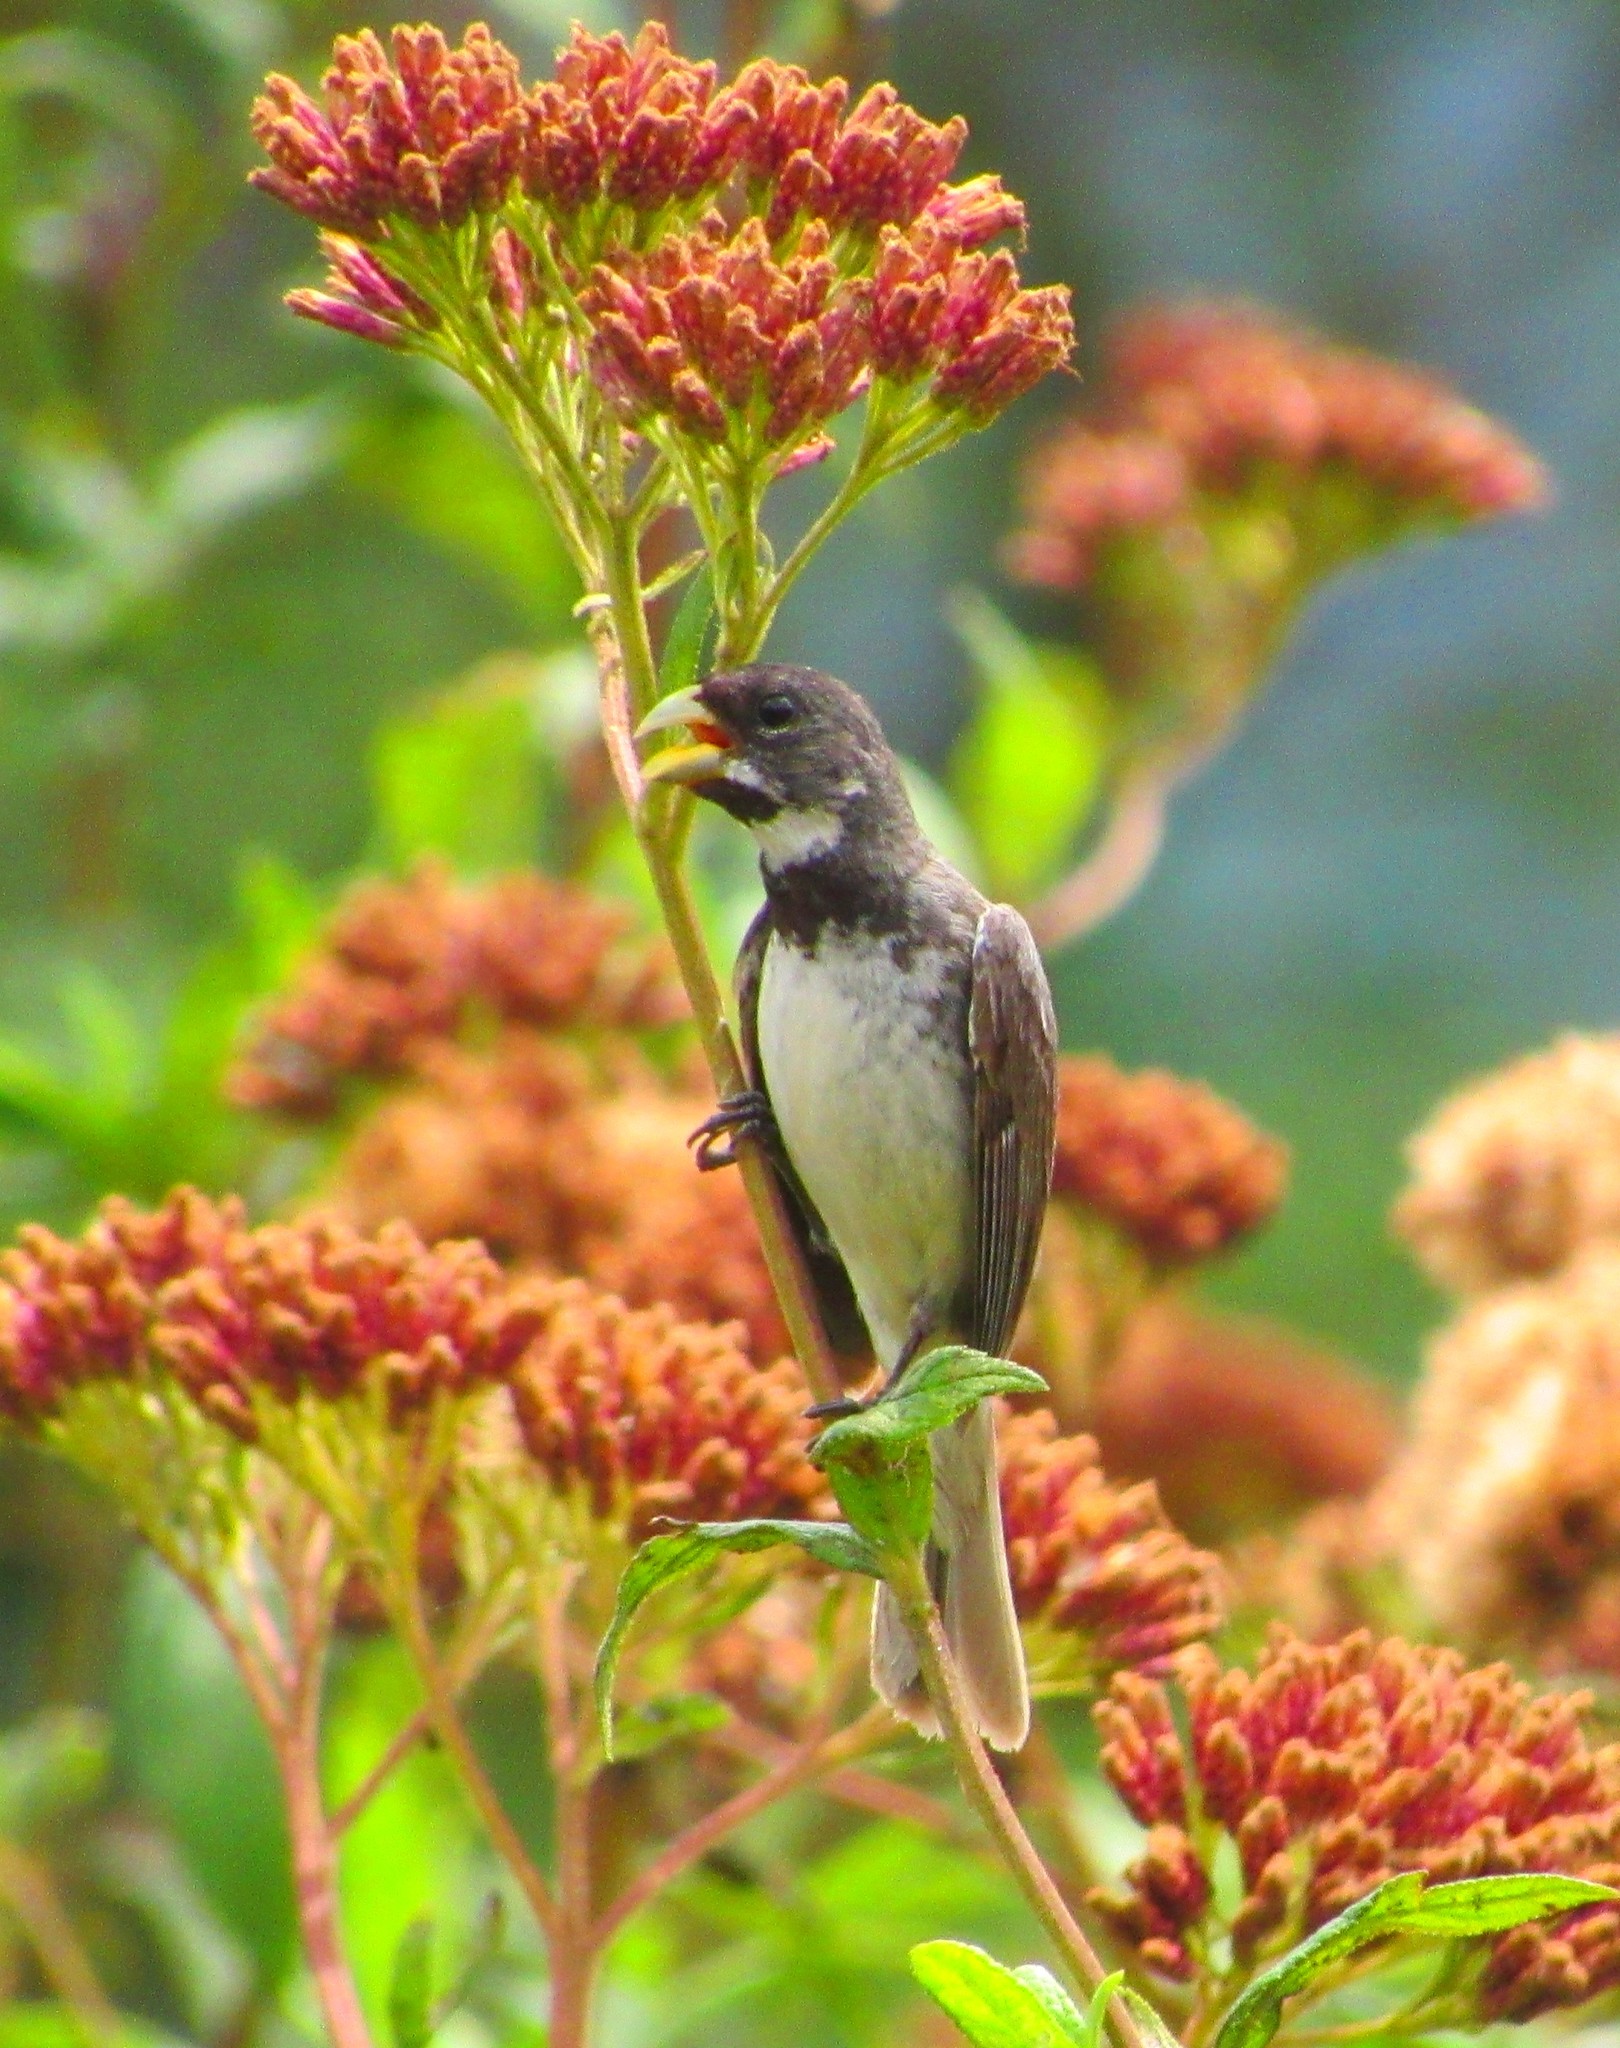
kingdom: Animalia
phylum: Chordata
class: Aves
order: Passeriformes
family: Thraupidae
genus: Sporophila
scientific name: Sporophila caerulescens
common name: Double-collared seedeater
